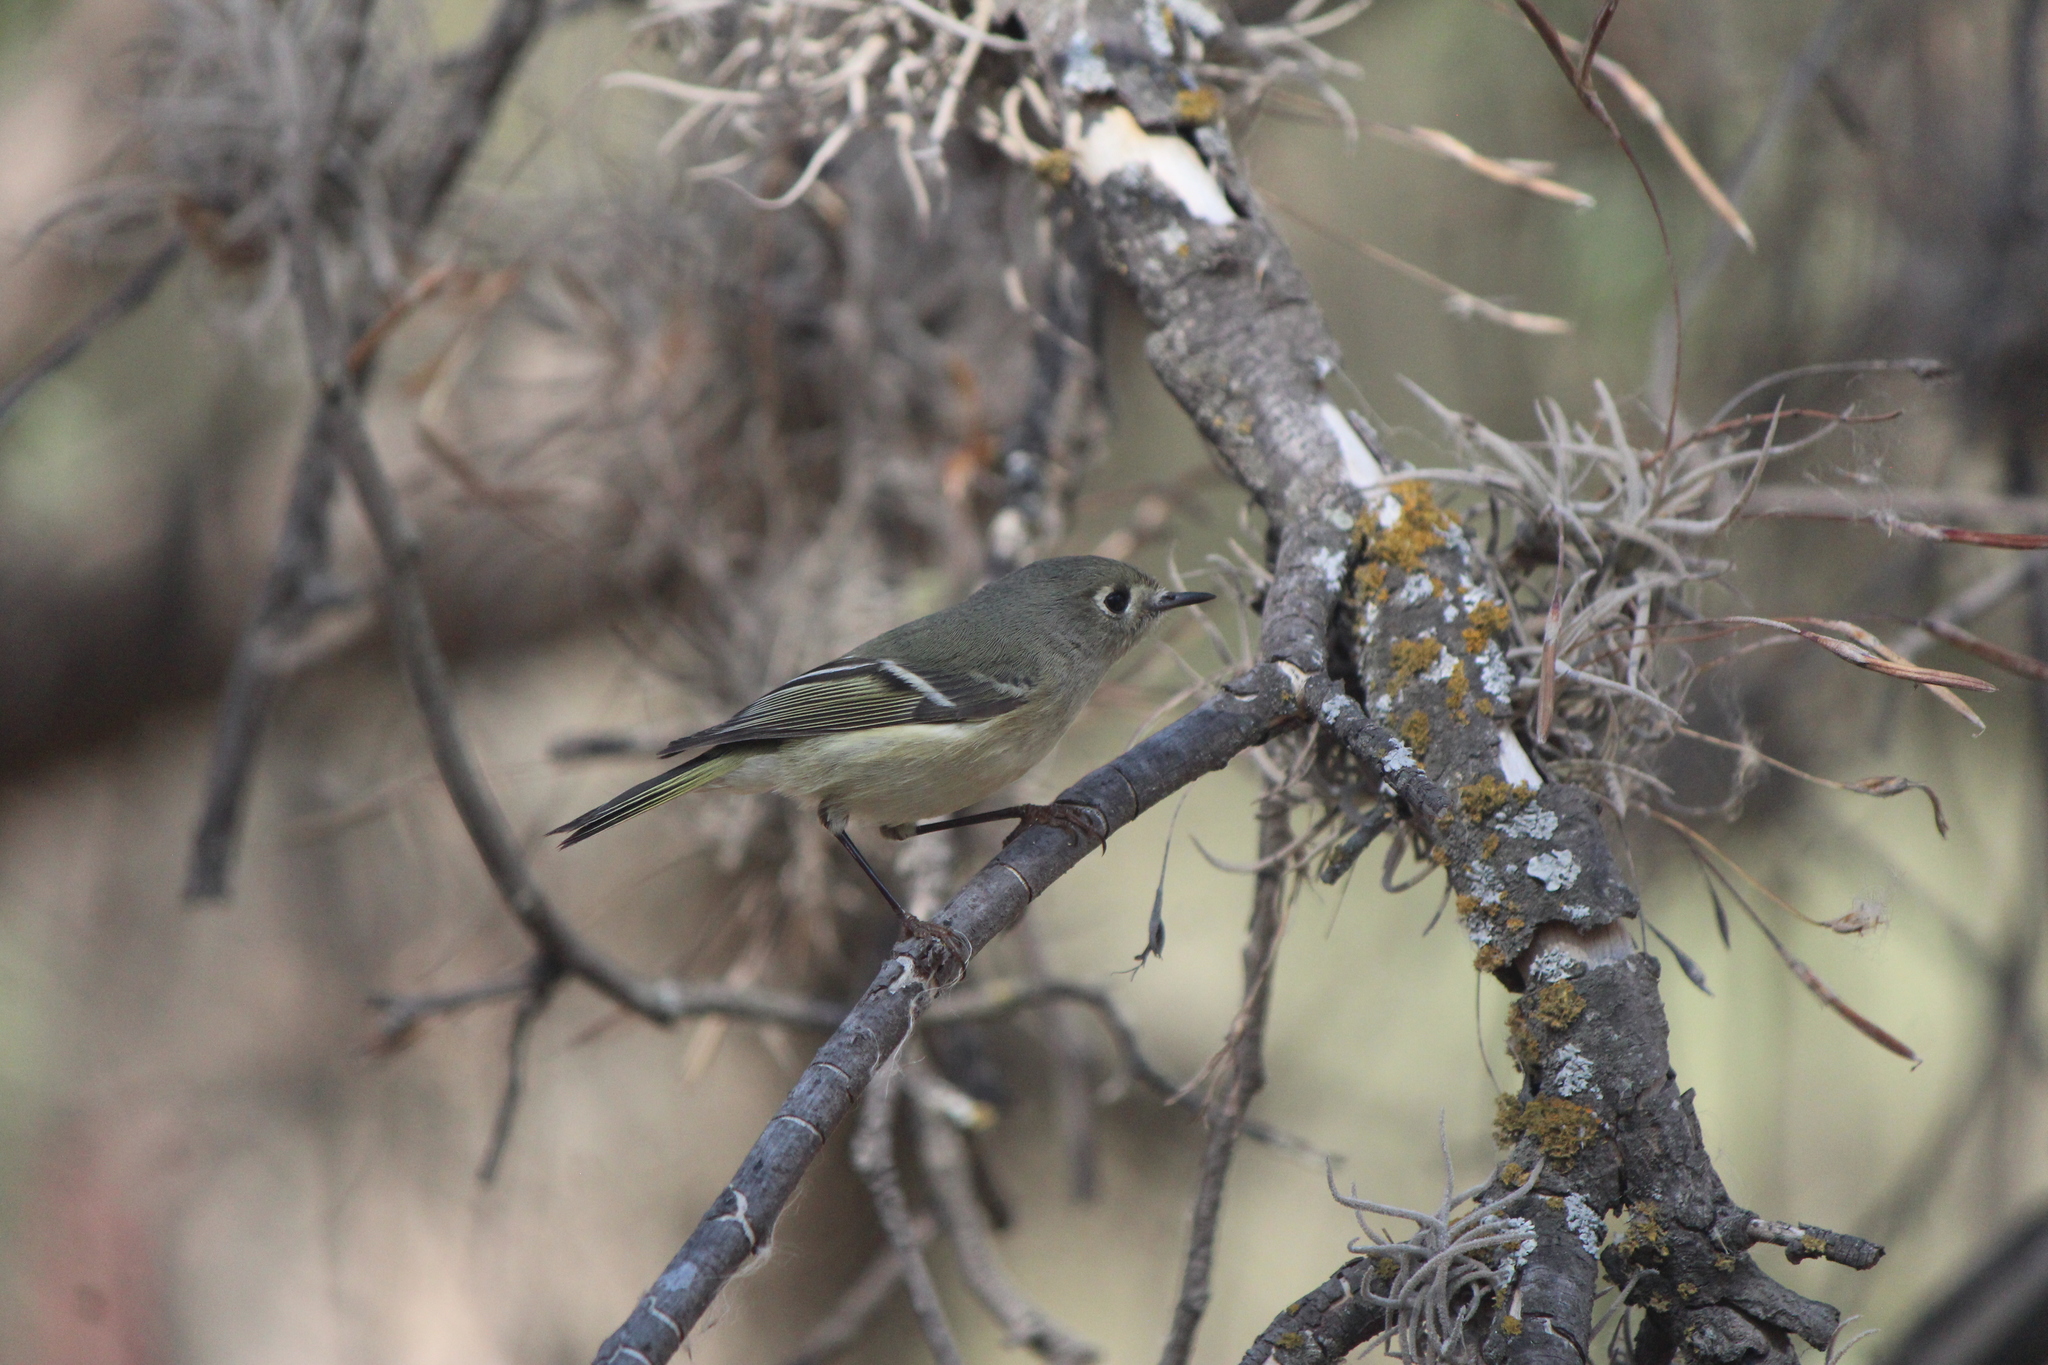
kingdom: Animalia
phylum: Chordata
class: Aves
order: Passeriformes
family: Regulidae
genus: Regulus
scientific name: Regulus calendula
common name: Ruby-crowned kinglet
